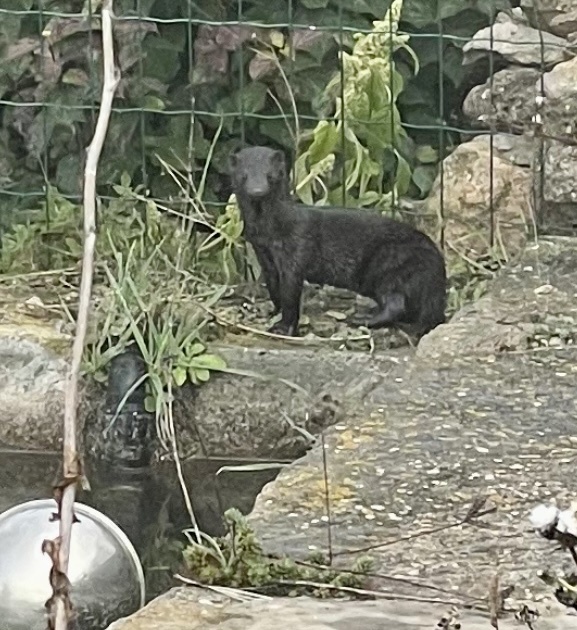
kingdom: Animalia
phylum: Chordata
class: Mammalia
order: Carnivora
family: Mustelidae
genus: Mustela
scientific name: Mustela
